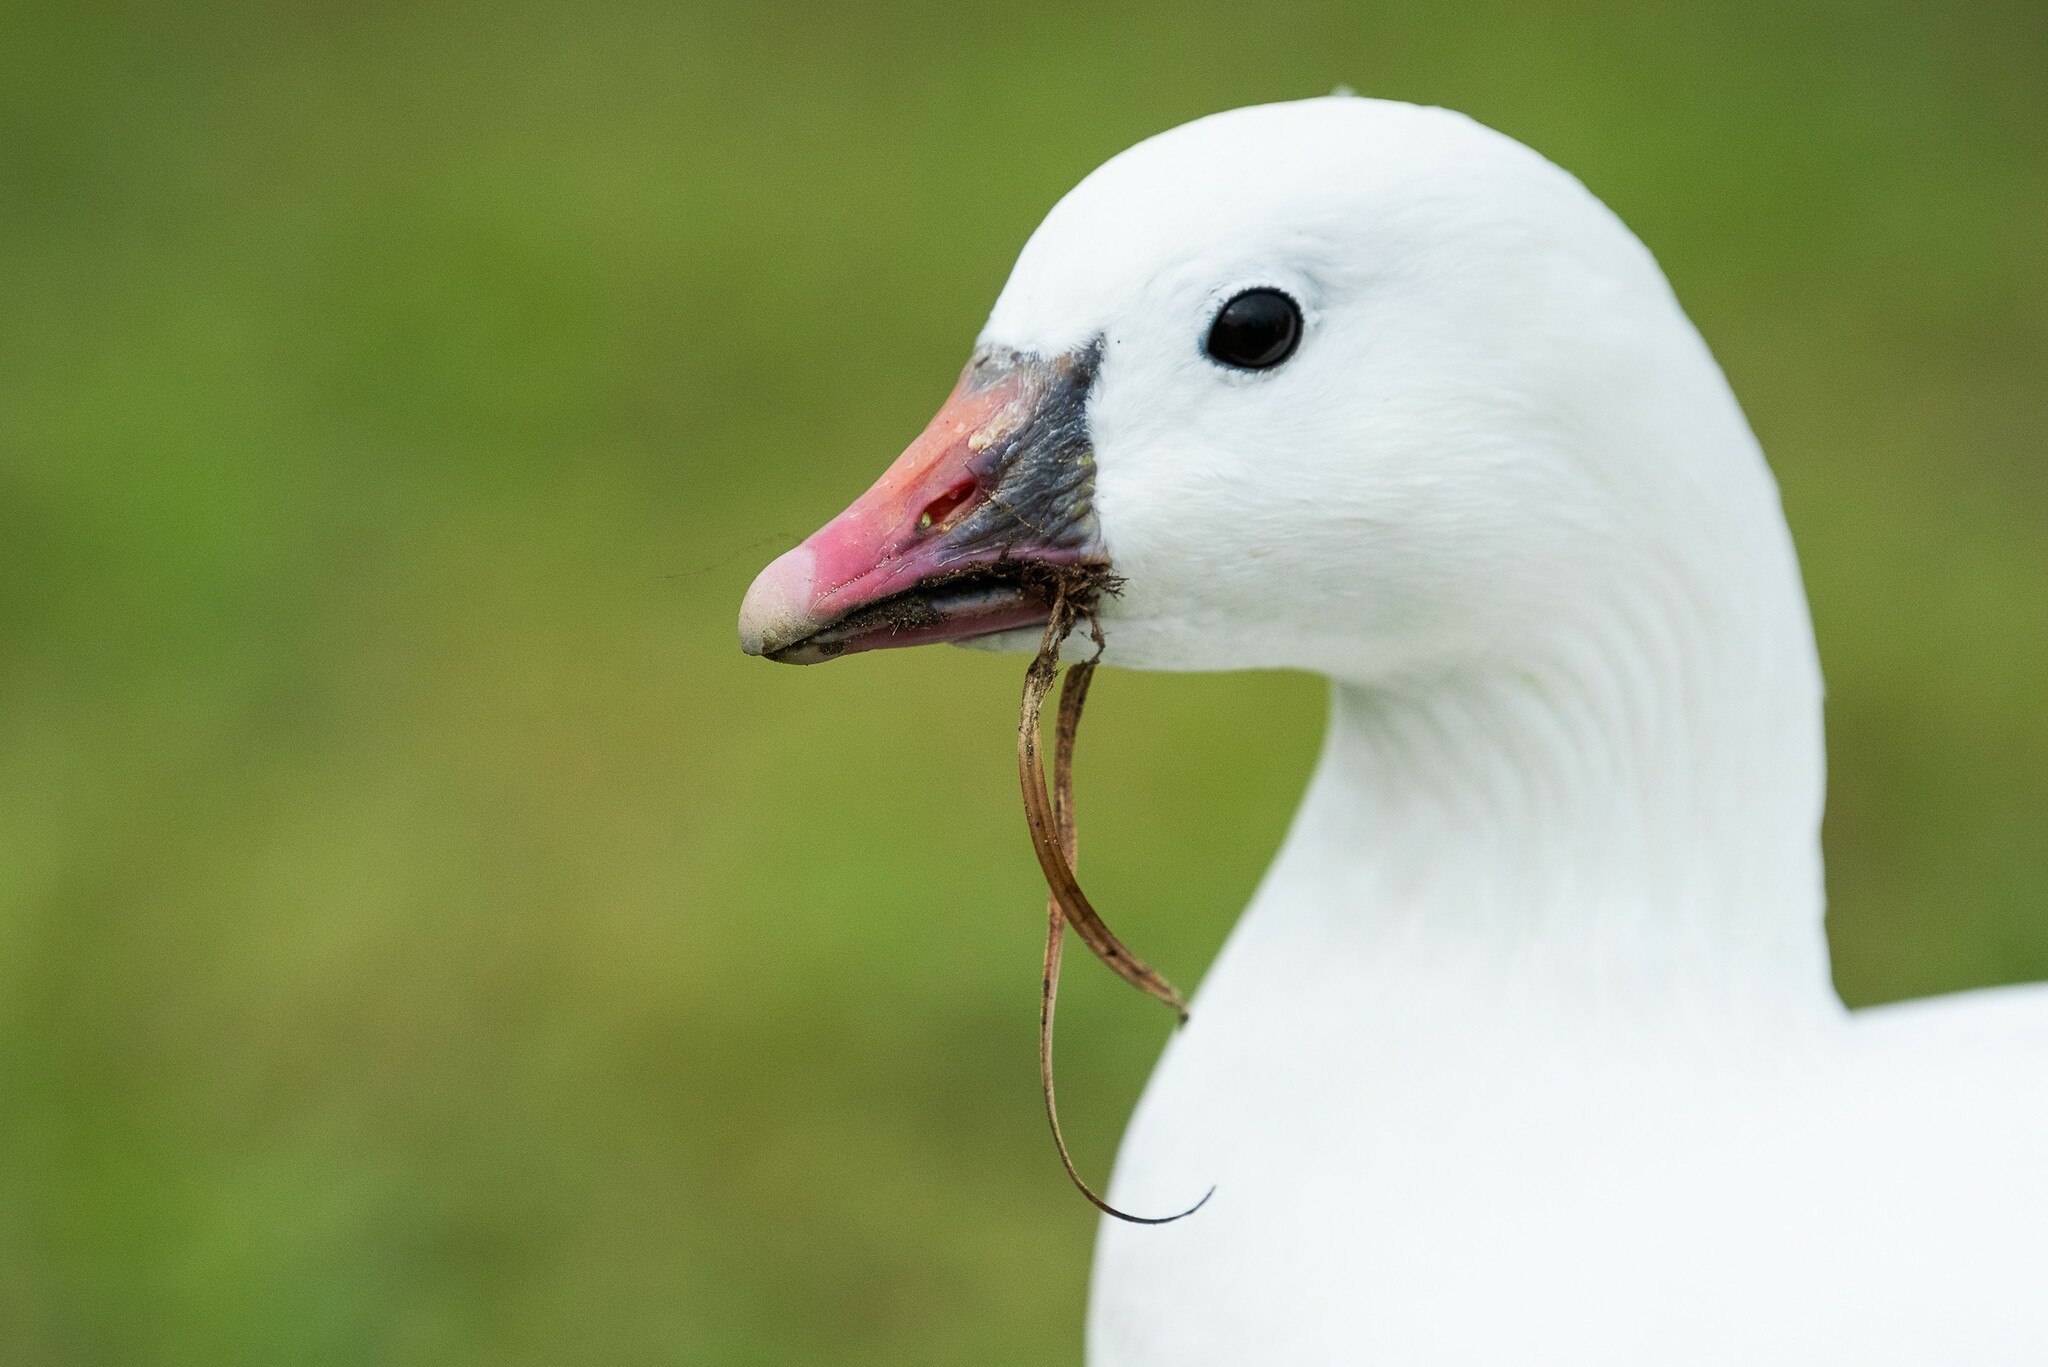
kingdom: Animalia
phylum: Chordata
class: Aves
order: Anseriformes
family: Anatidae
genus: Anser
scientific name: Anser rossii
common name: Ross's goose
